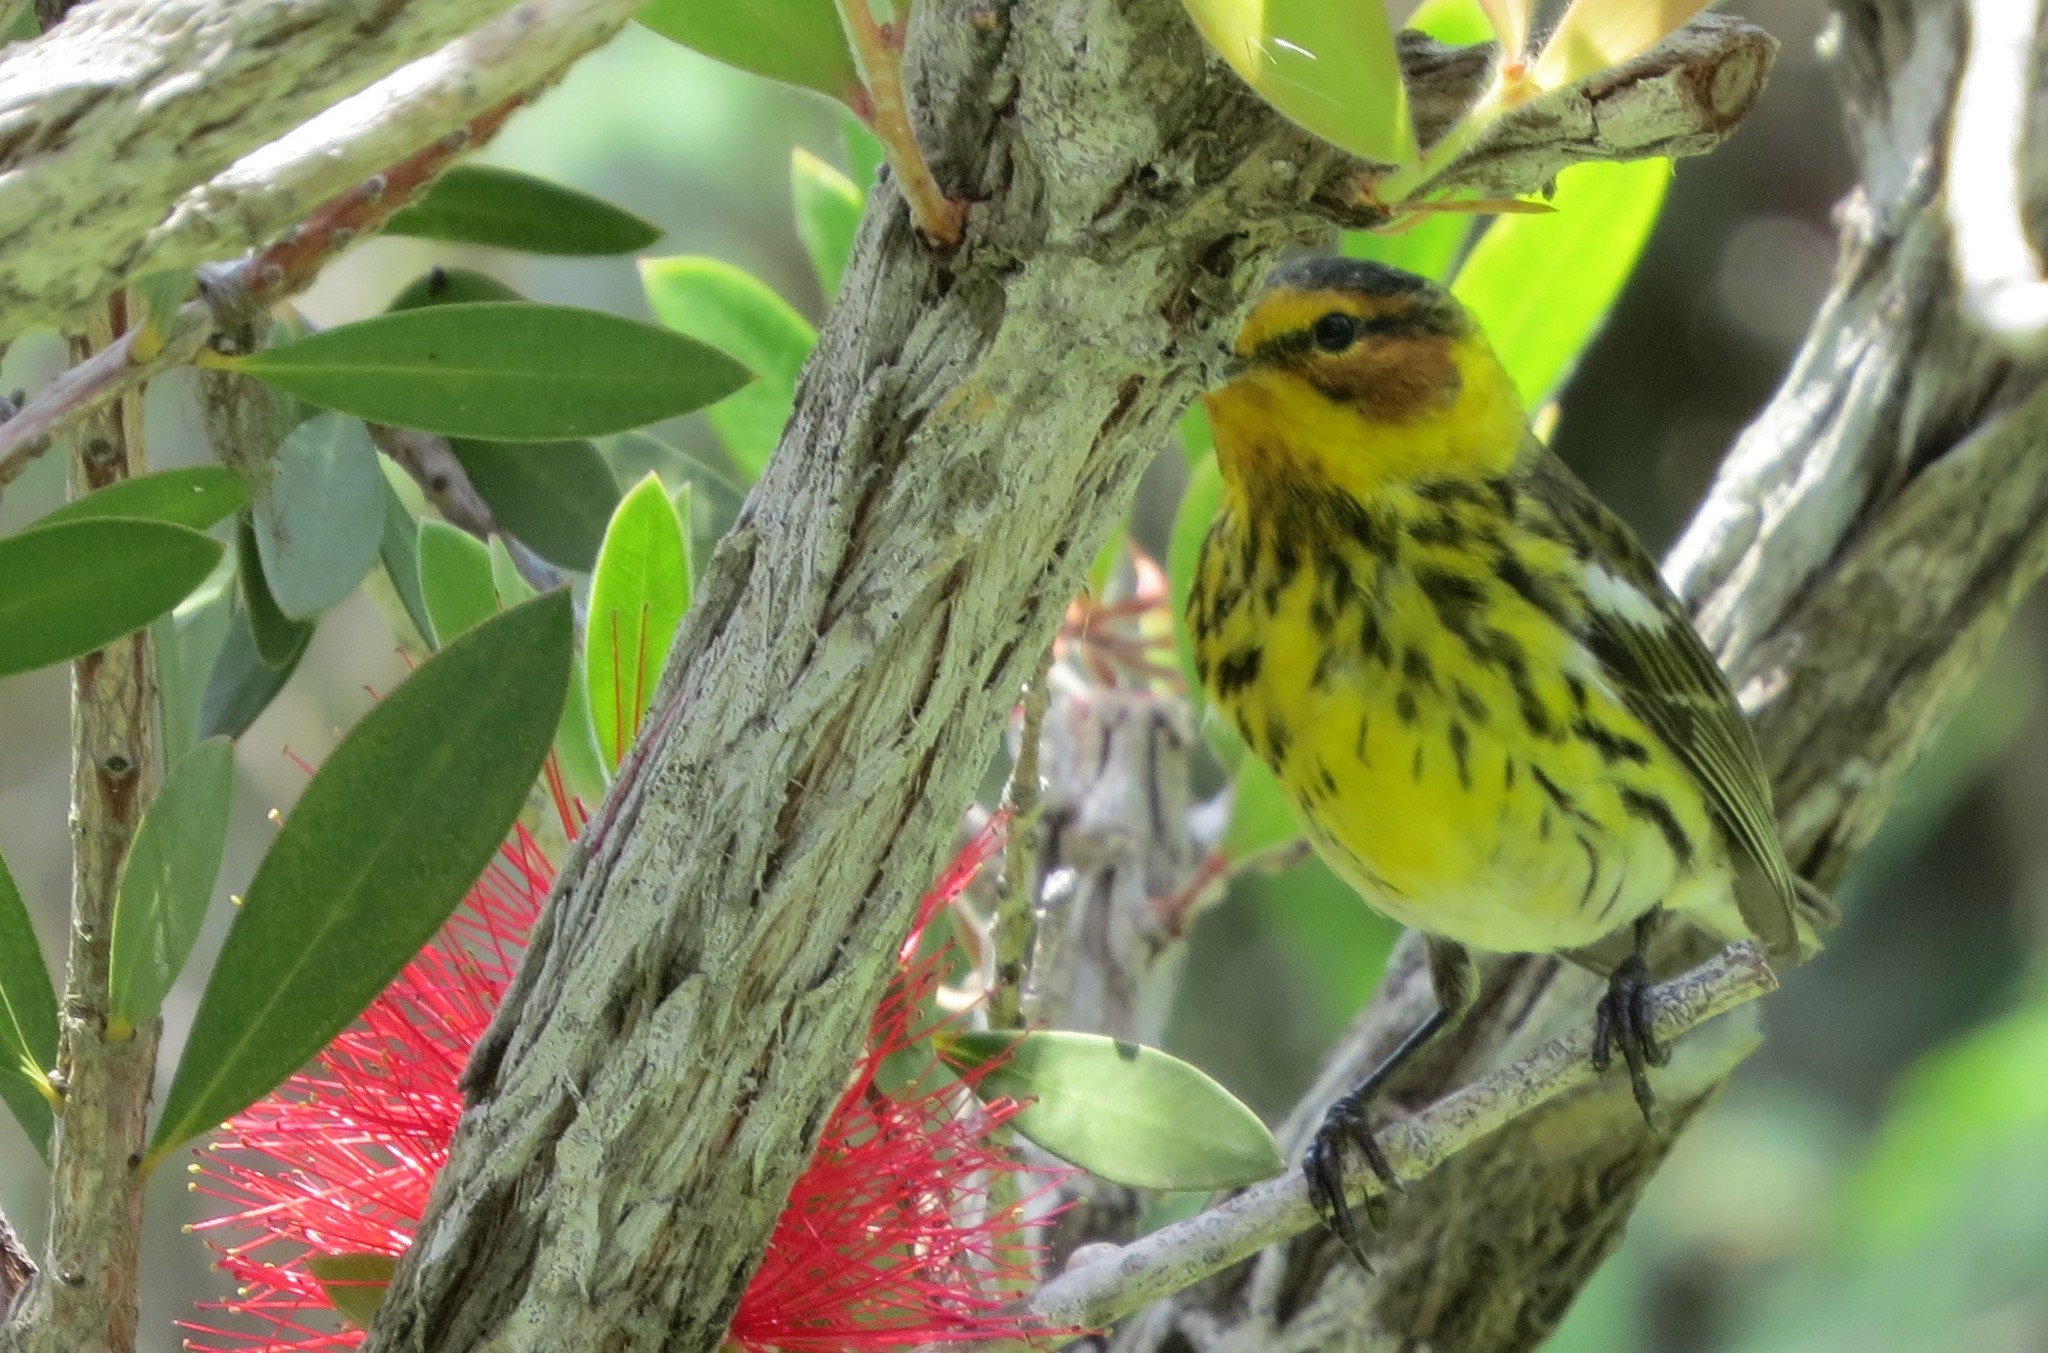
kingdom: Animalia
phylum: Chordata
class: Aves
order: Passeriformes
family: Parulidae
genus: Setophaga
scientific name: Setophaga tigrina
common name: Cape may warbler
